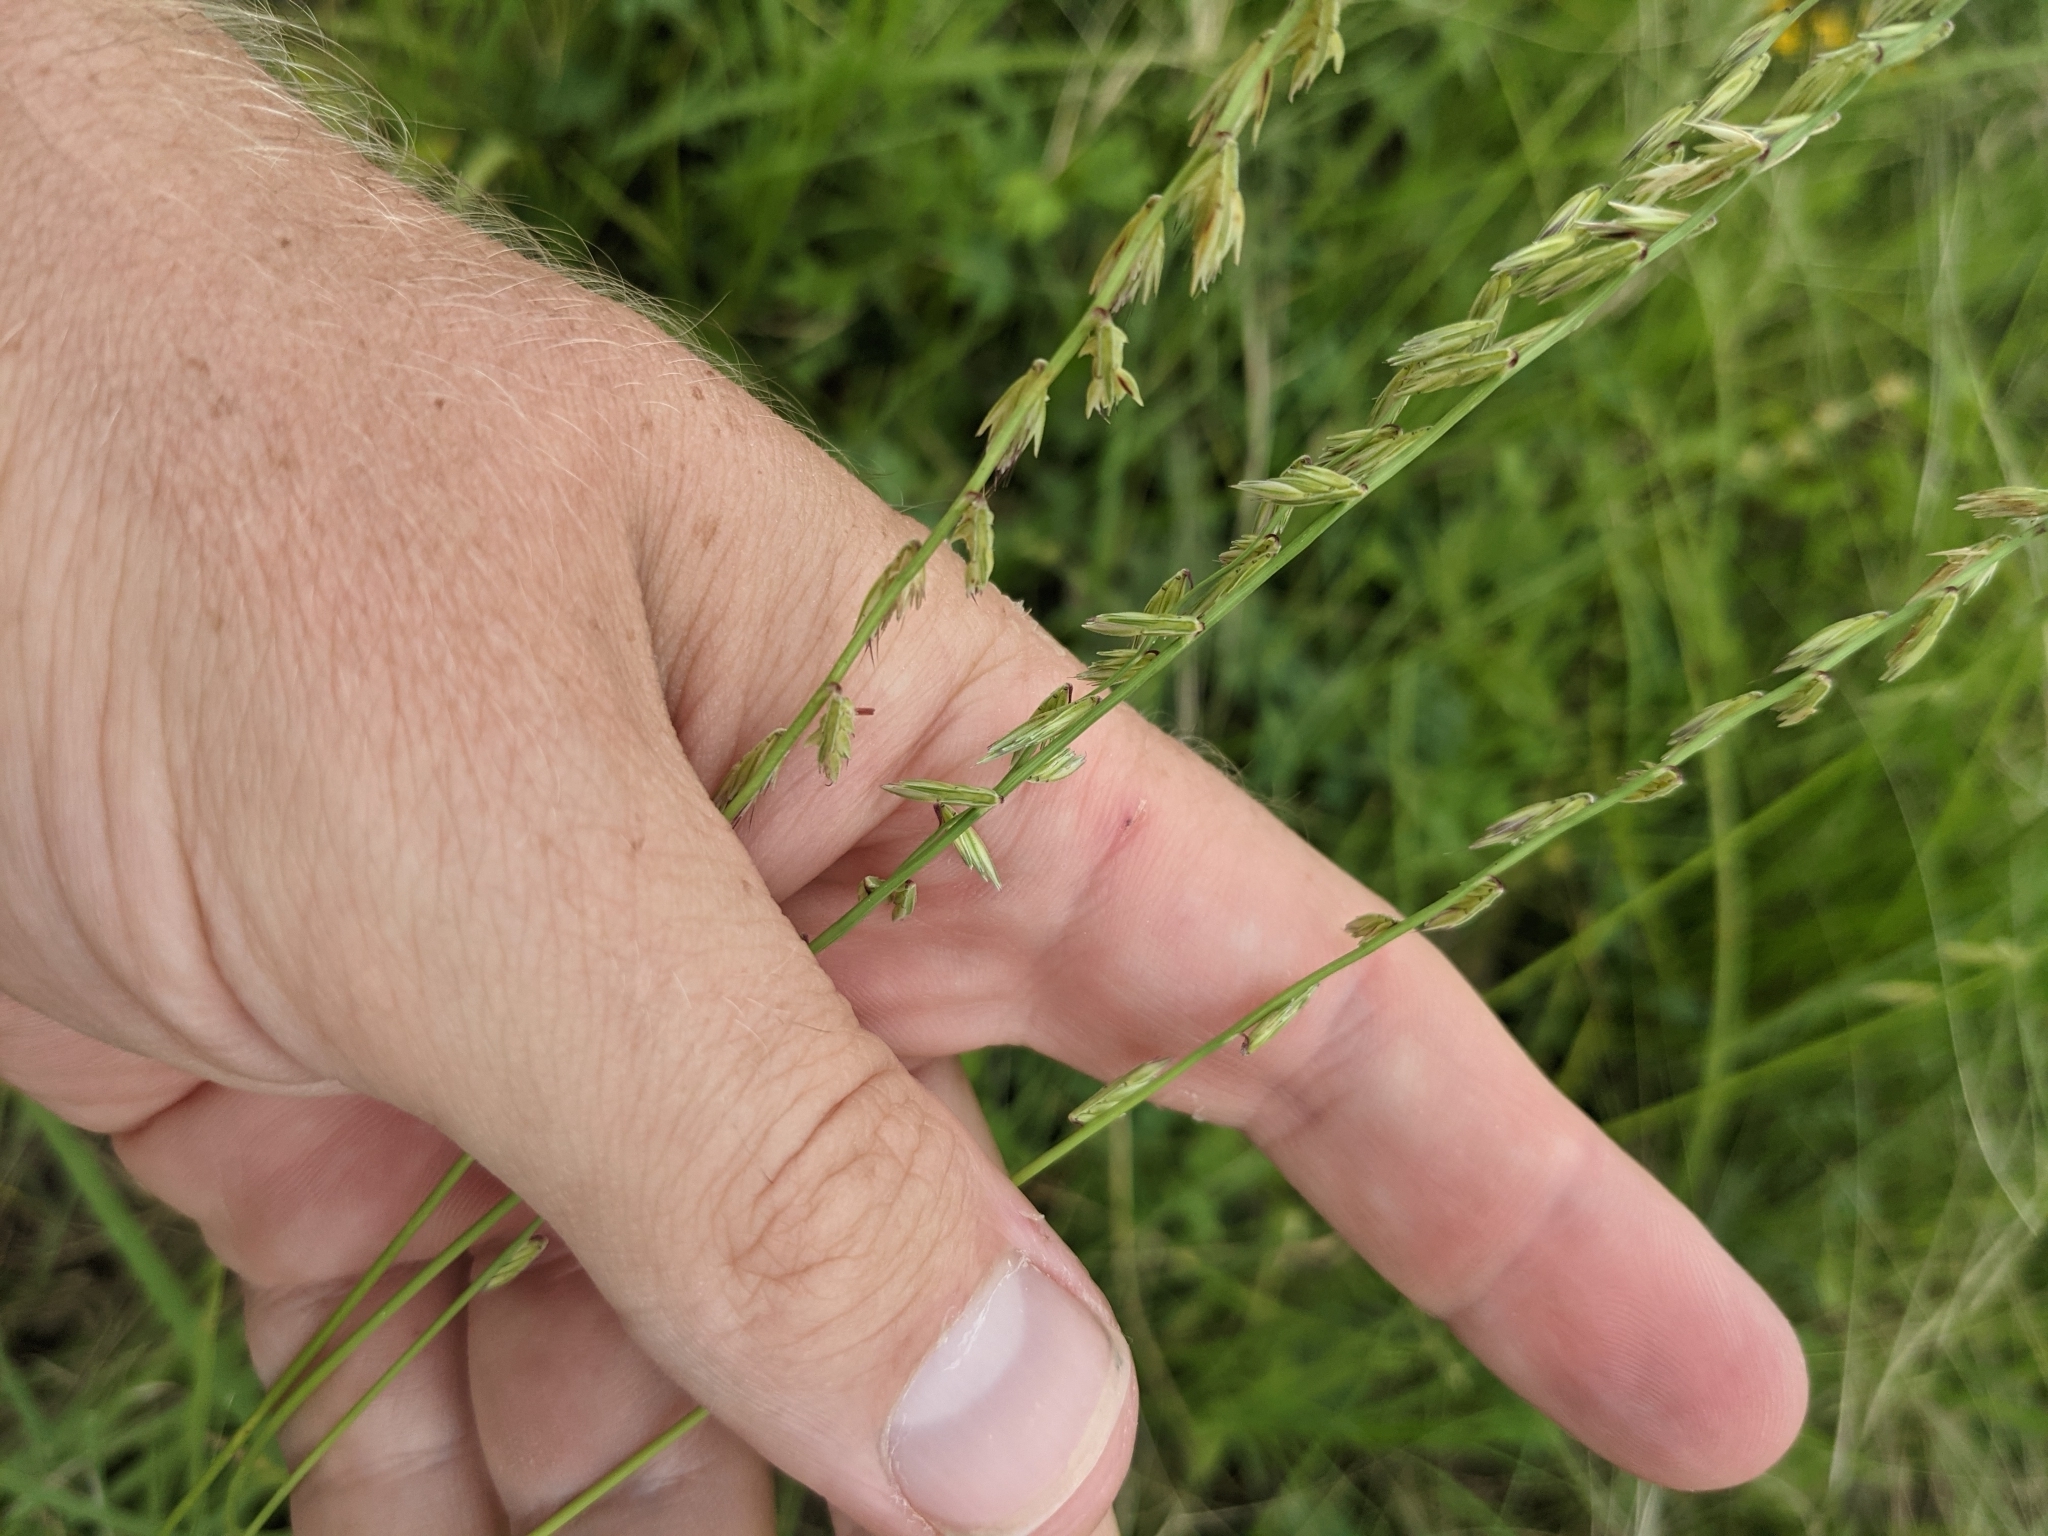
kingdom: Plantae
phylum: Tracheophyta
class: Liliopsida
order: Poales
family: Poaceae
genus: Bouteloua
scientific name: Bouteloua curtipendula
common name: Side-oats grama
